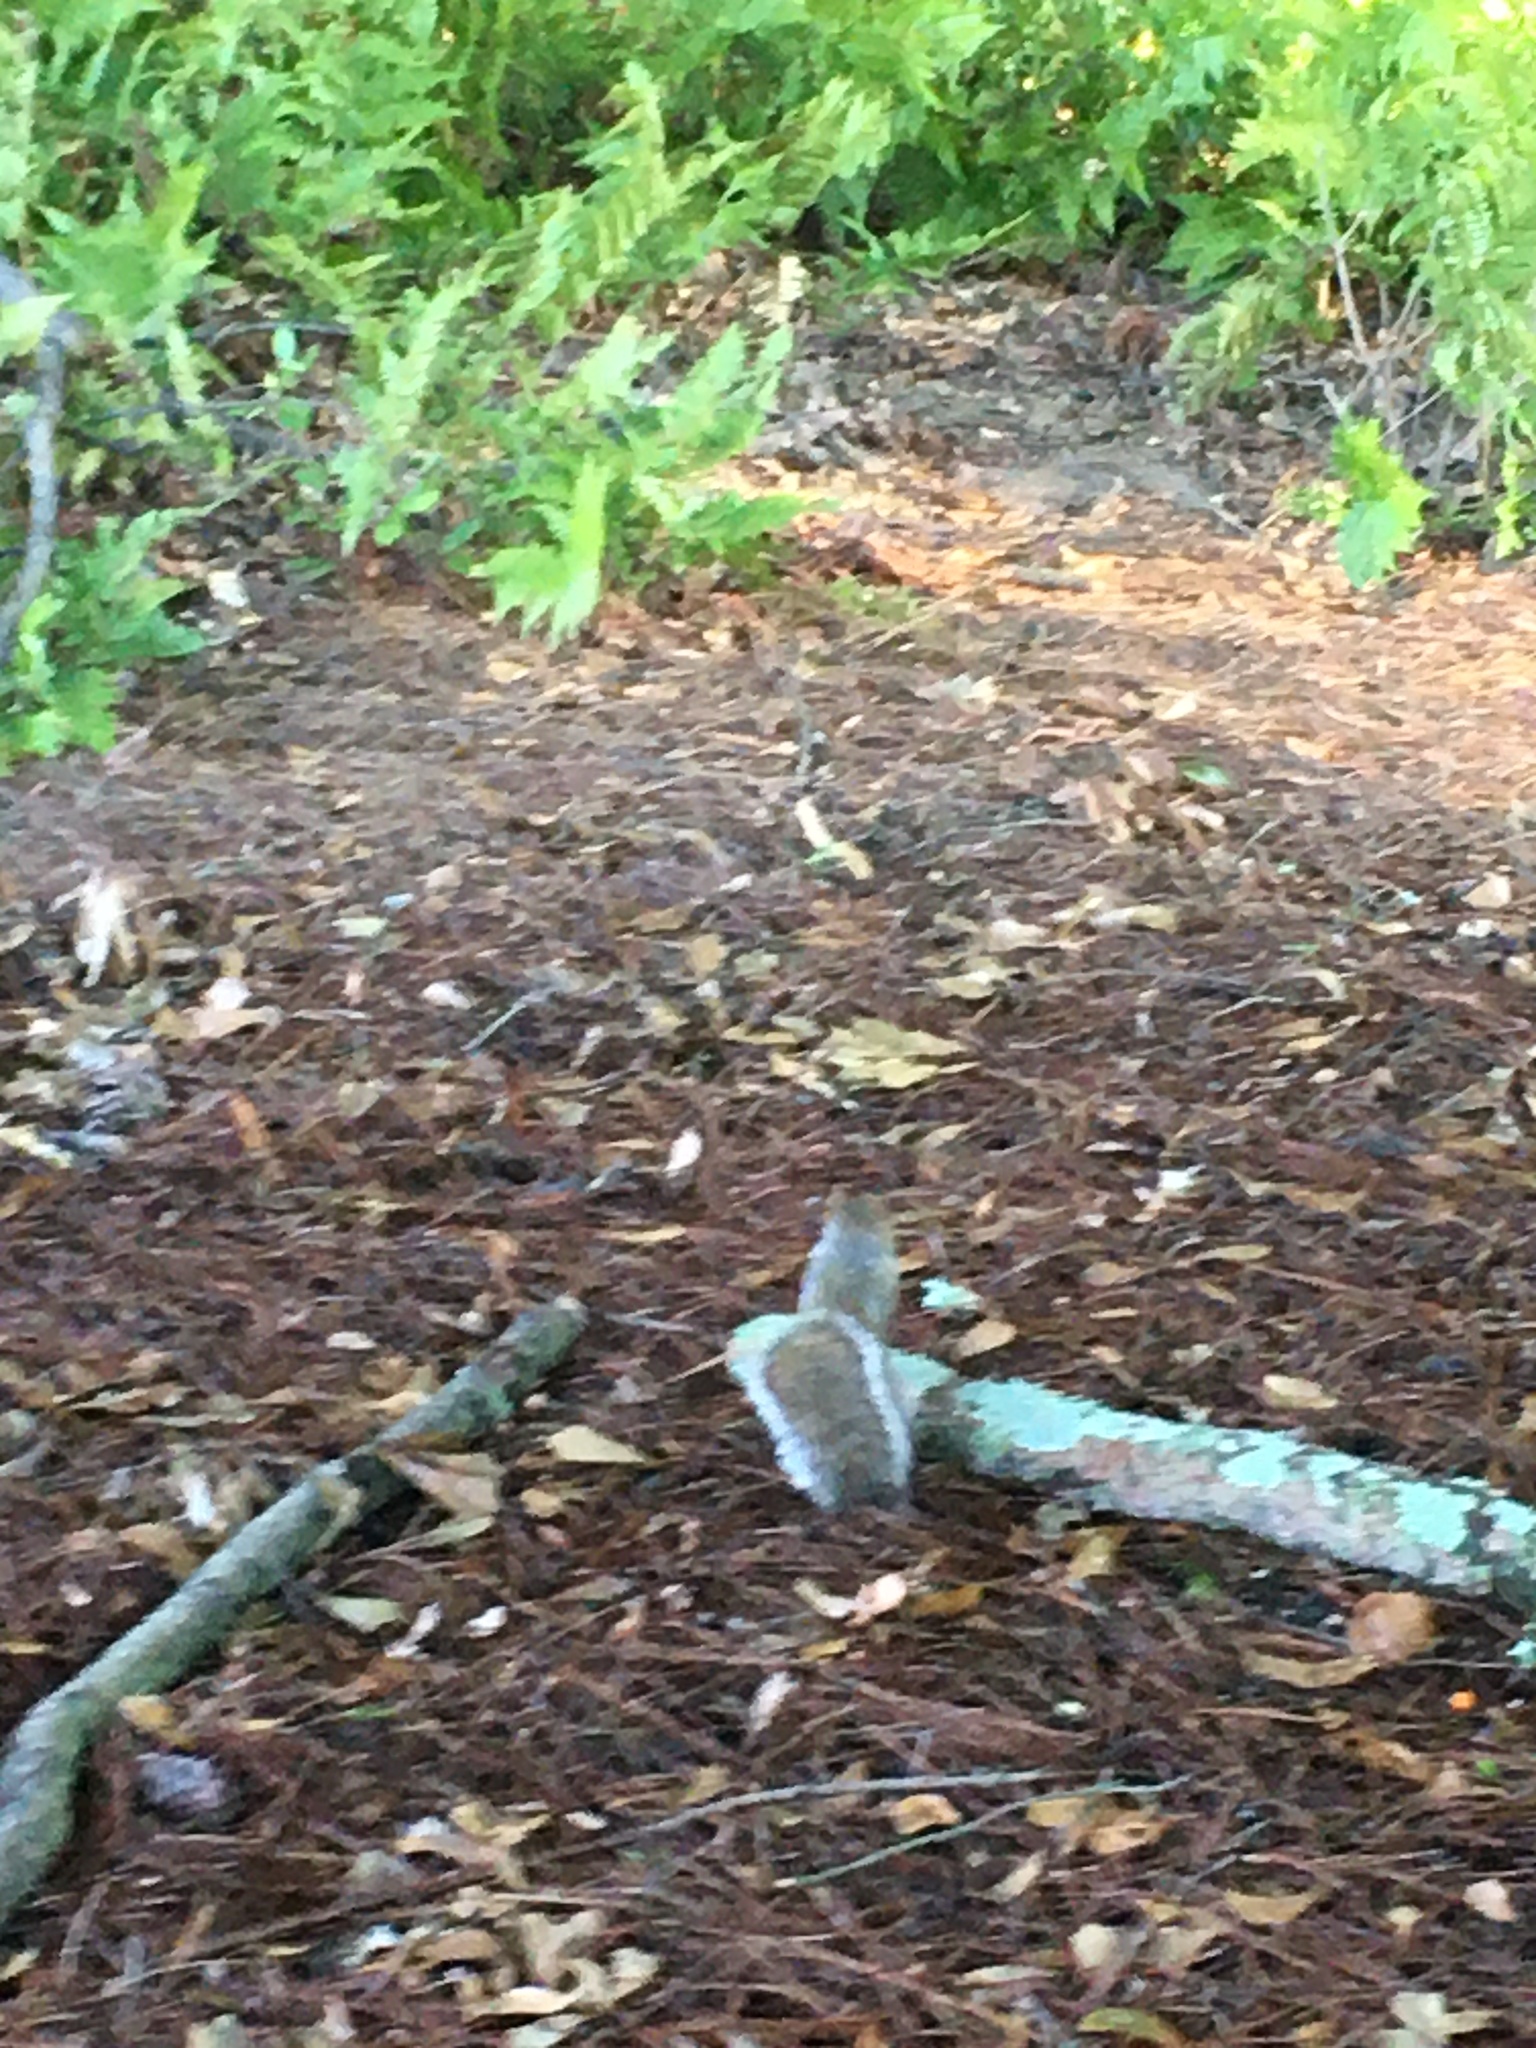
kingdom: Animalia
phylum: Chordata
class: Mammalia
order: Rodentia
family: Sciuridae
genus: Sciurus
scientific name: Sciurus carolinensis
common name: Eastern gray squirrel
